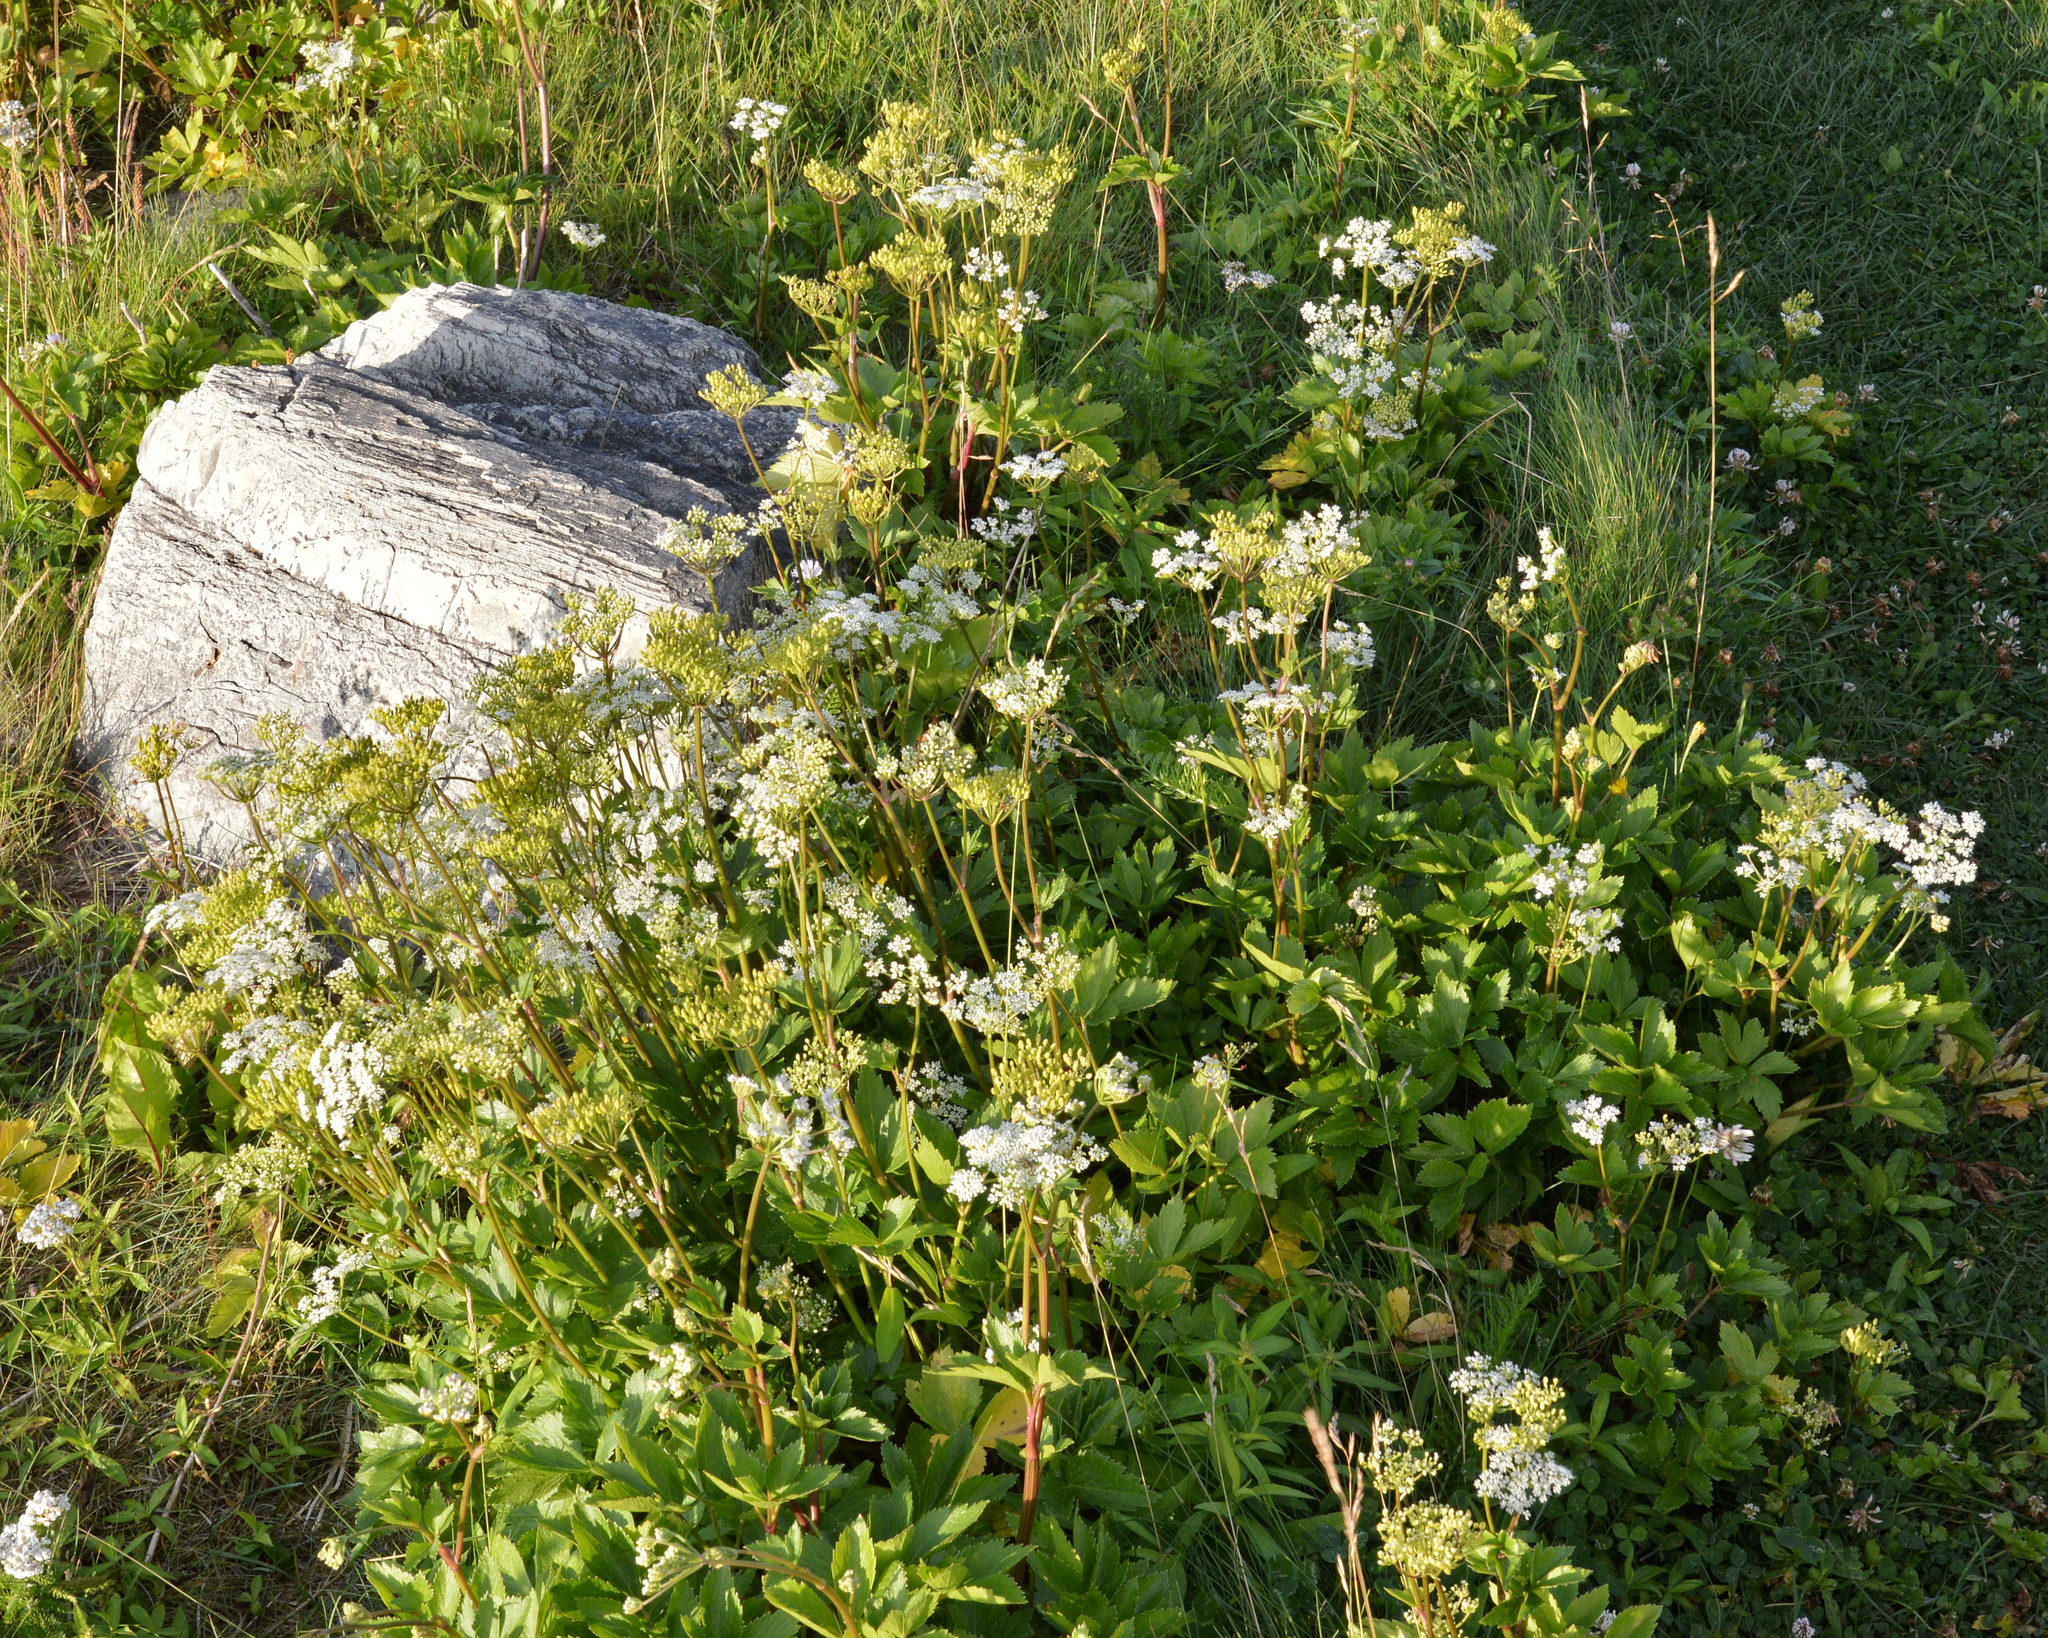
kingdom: Plantae
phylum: Tracheophyta
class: Magnoliopsida
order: Apiales
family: Apiaceae
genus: Ligusticum
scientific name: Ligusticum scothicum
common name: Beach lovage
